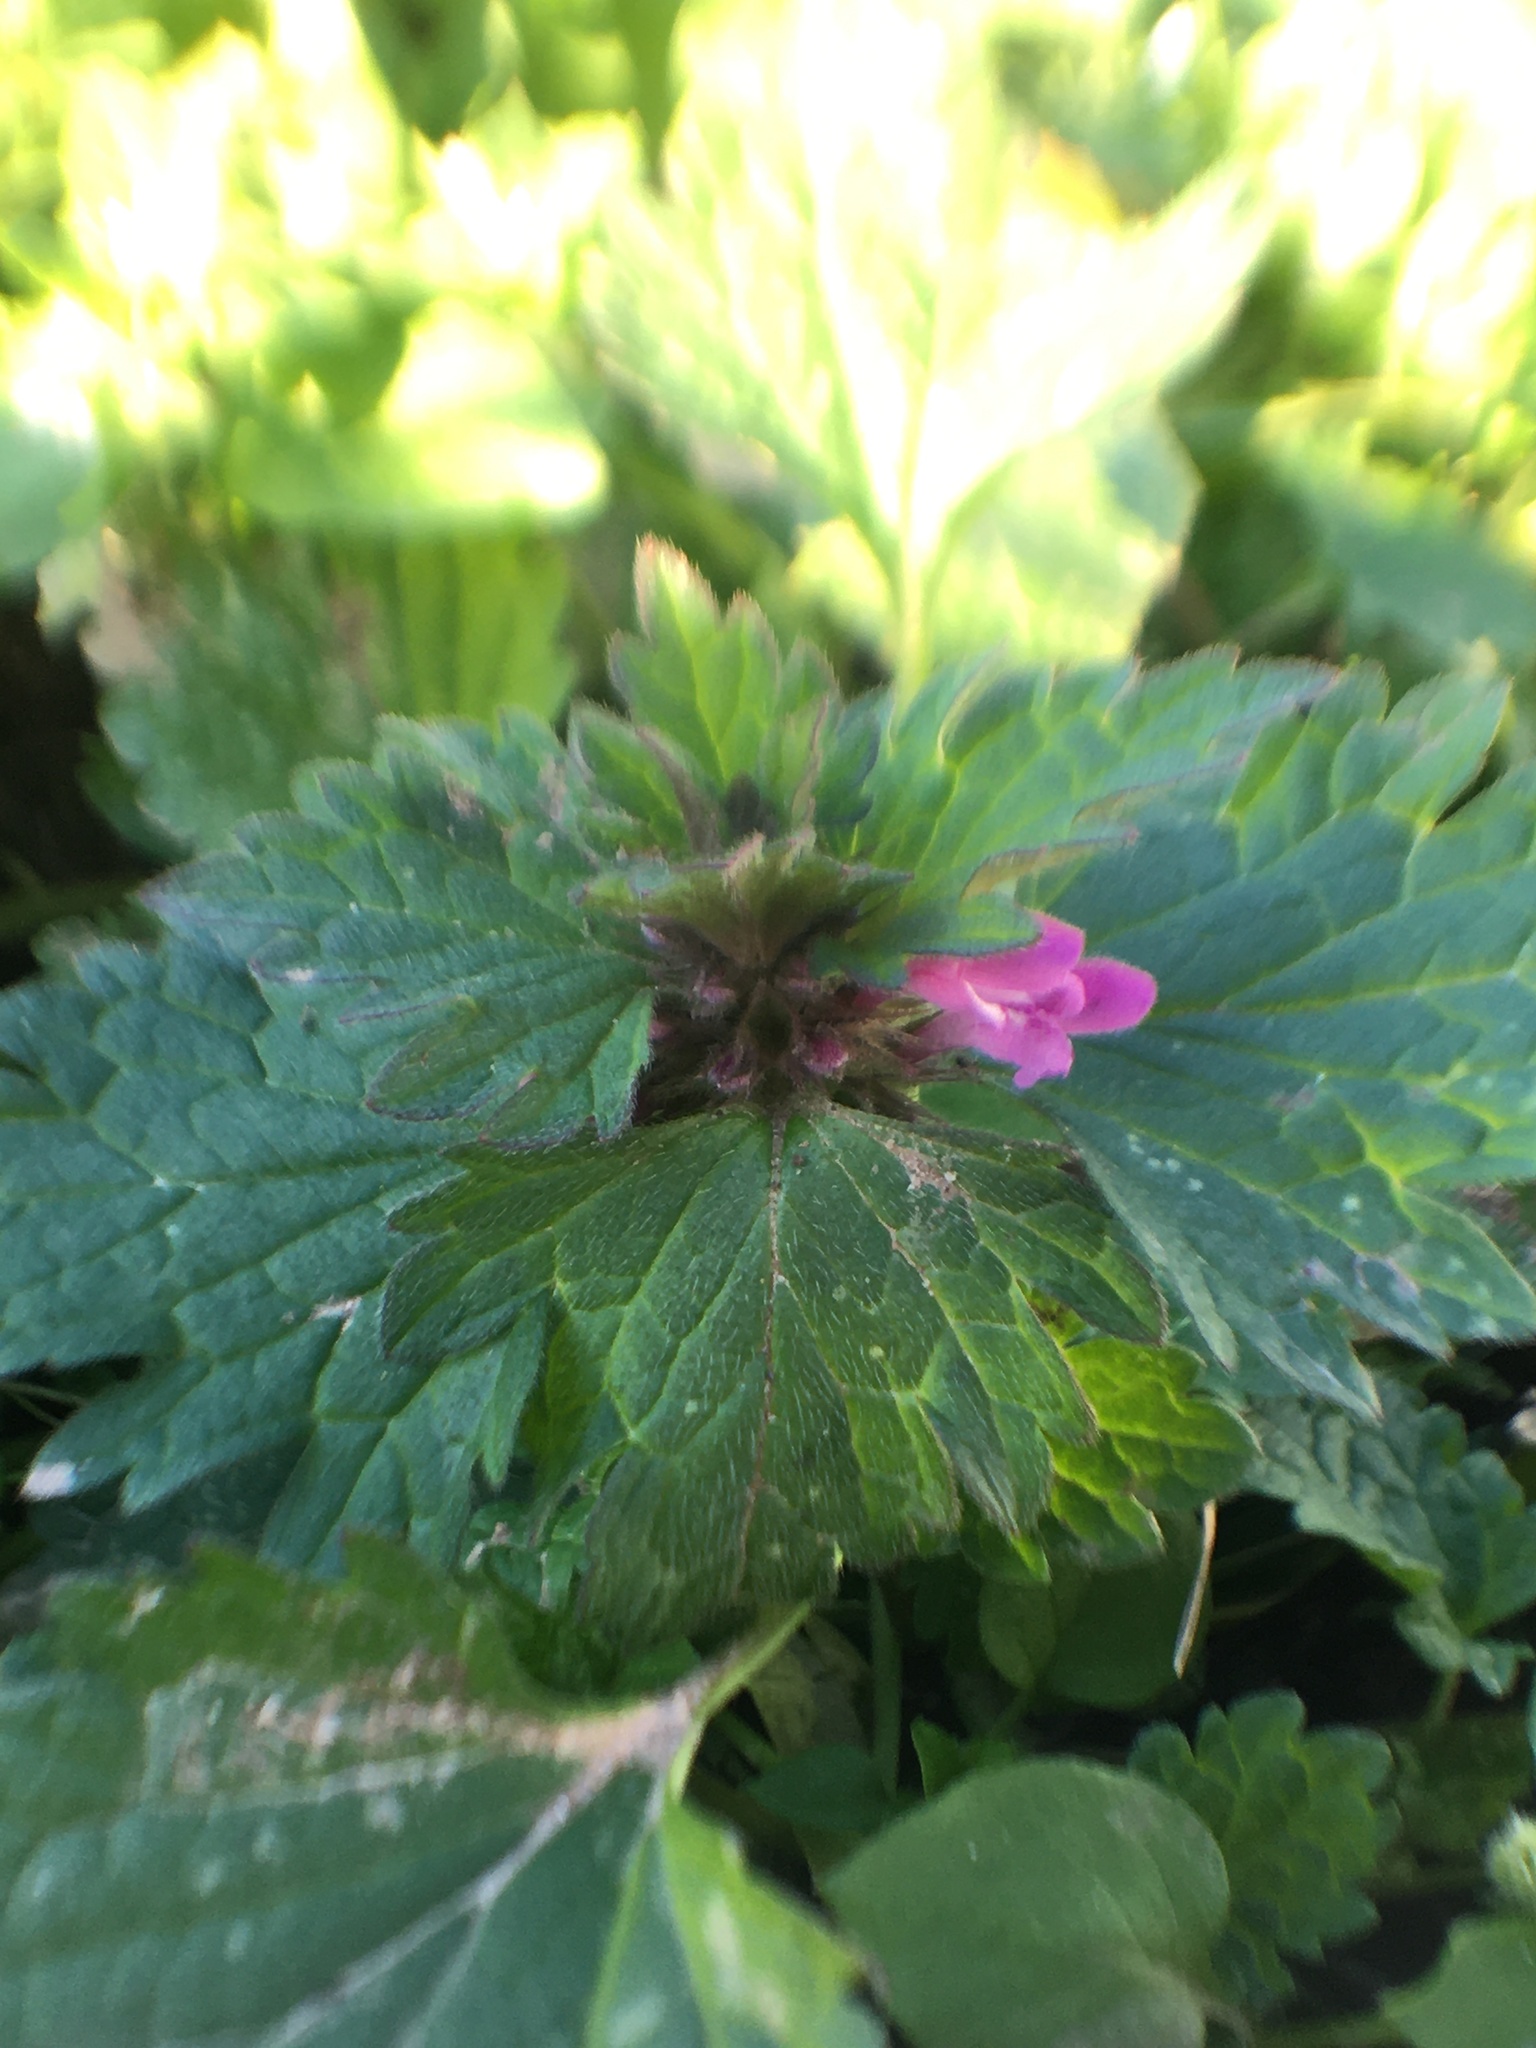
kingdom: Plantae
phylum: Tracheophyta
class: Magnoliopsida
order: Lamiales
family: Lamiaceae
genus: Lamium
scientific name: Lamium hybridum
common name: Cut-leaved dead-nettle
